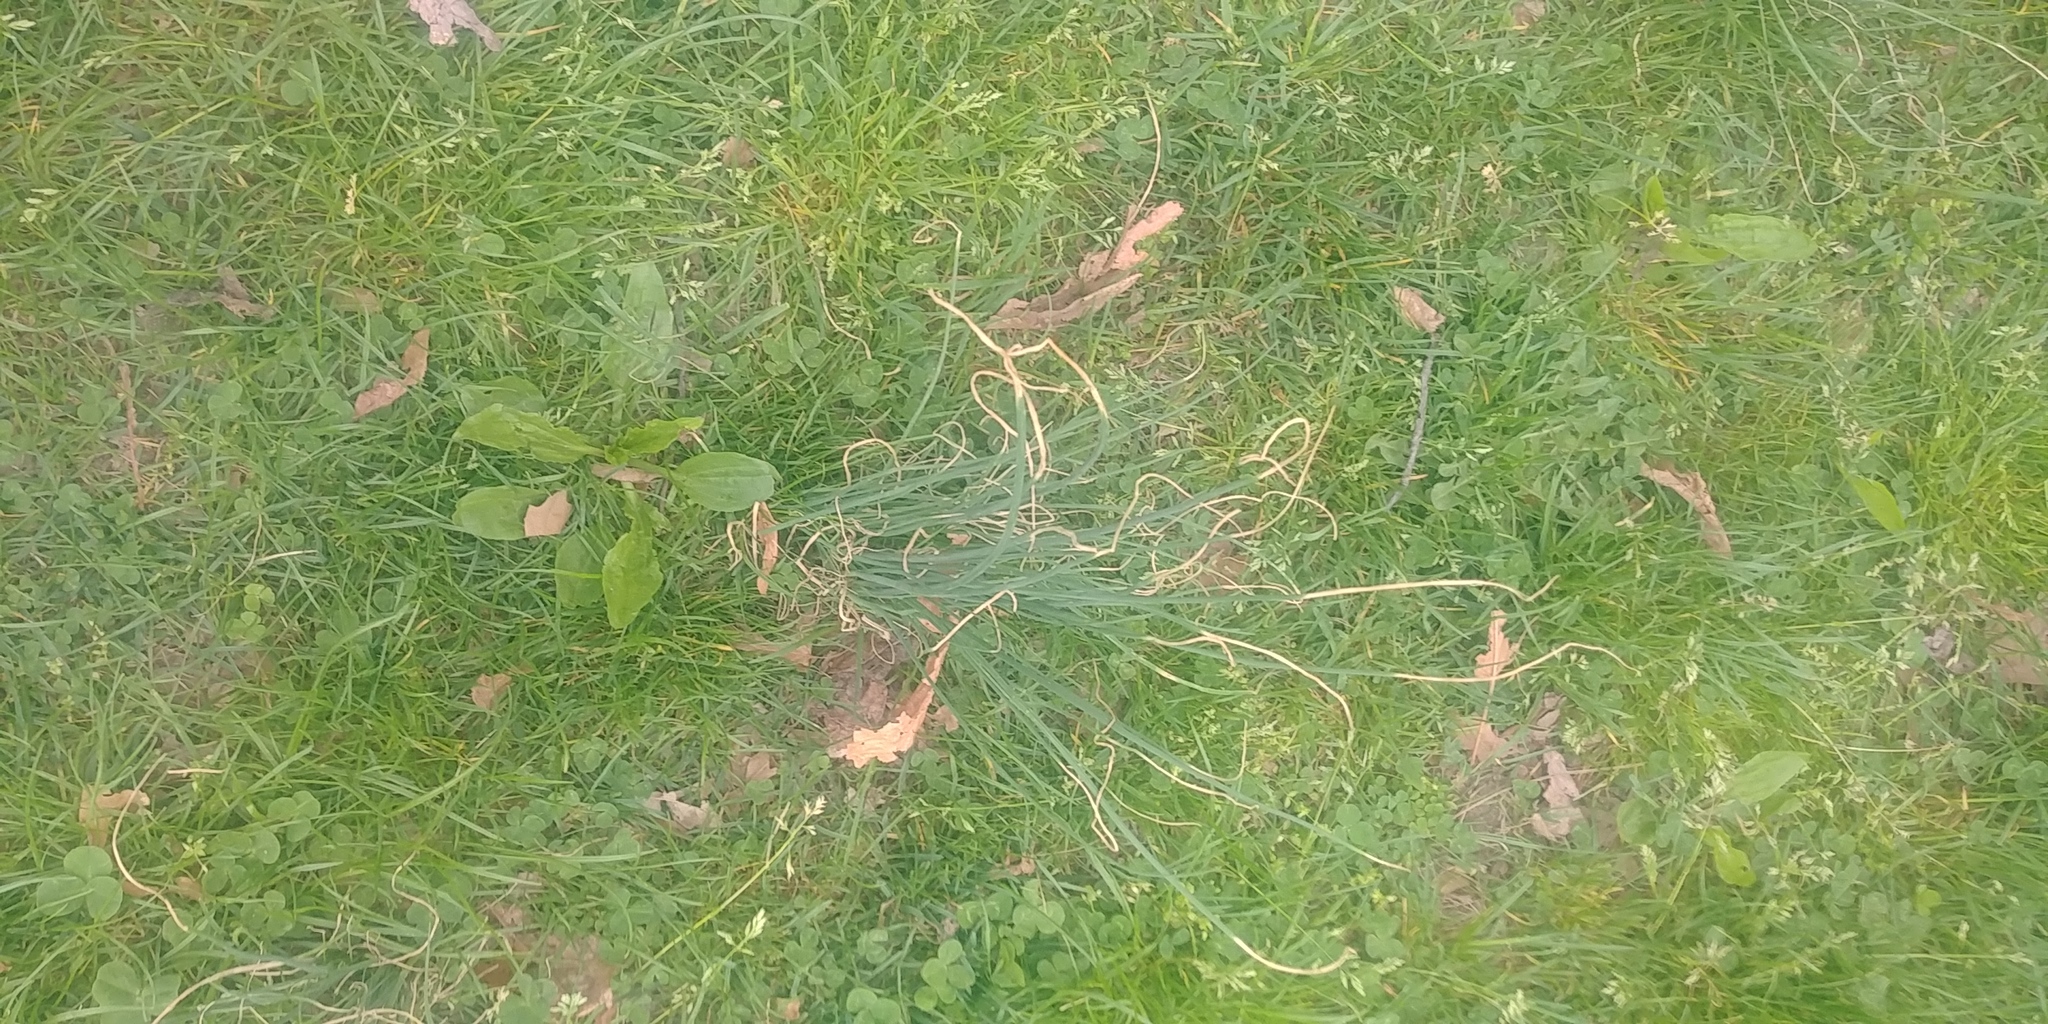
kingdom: Plantae
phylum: Tracheophyta
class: Liliopsida
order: Asparagales
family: Amaryllidaceae
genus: Allium
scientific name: Allium vineale
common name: Crow garlic
